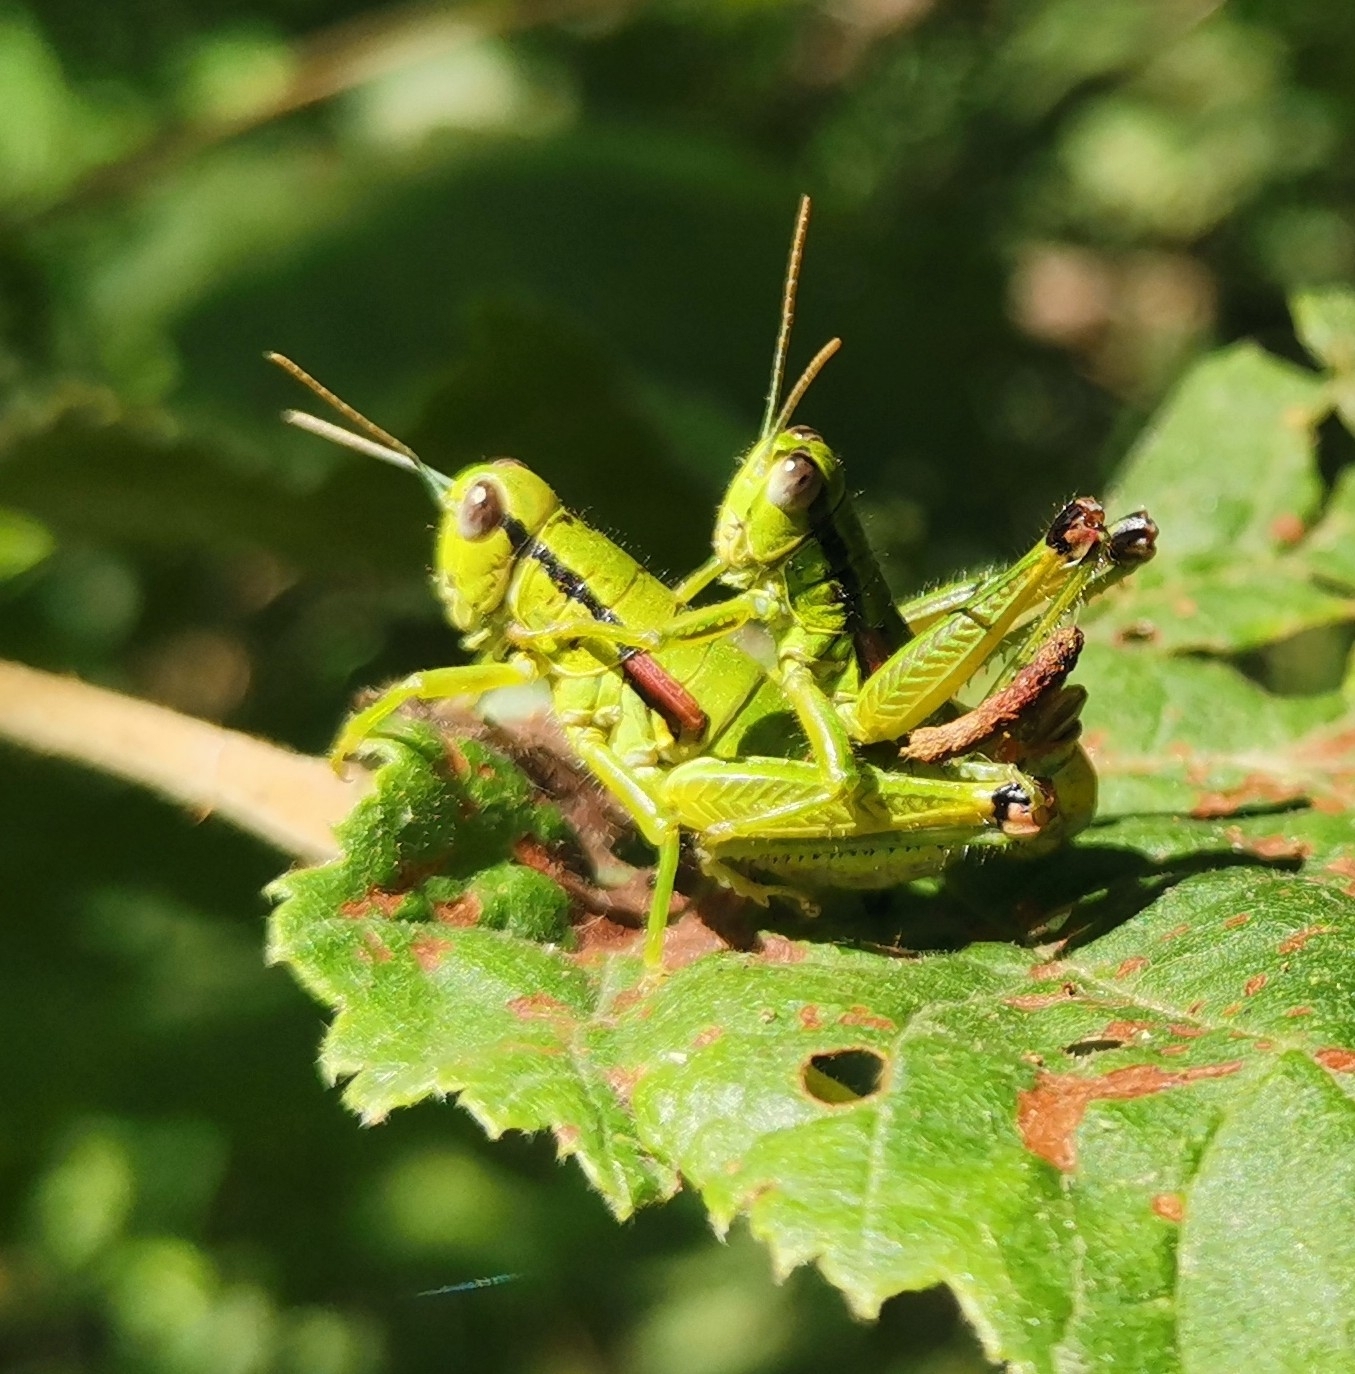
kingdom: Animalia
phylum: Arthropoda
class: Insecta
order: Orthoptera
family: Acrididae
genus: Odontopodisma
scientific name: Odontopodisma decipiens
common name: Cheating mountain grasshopper
